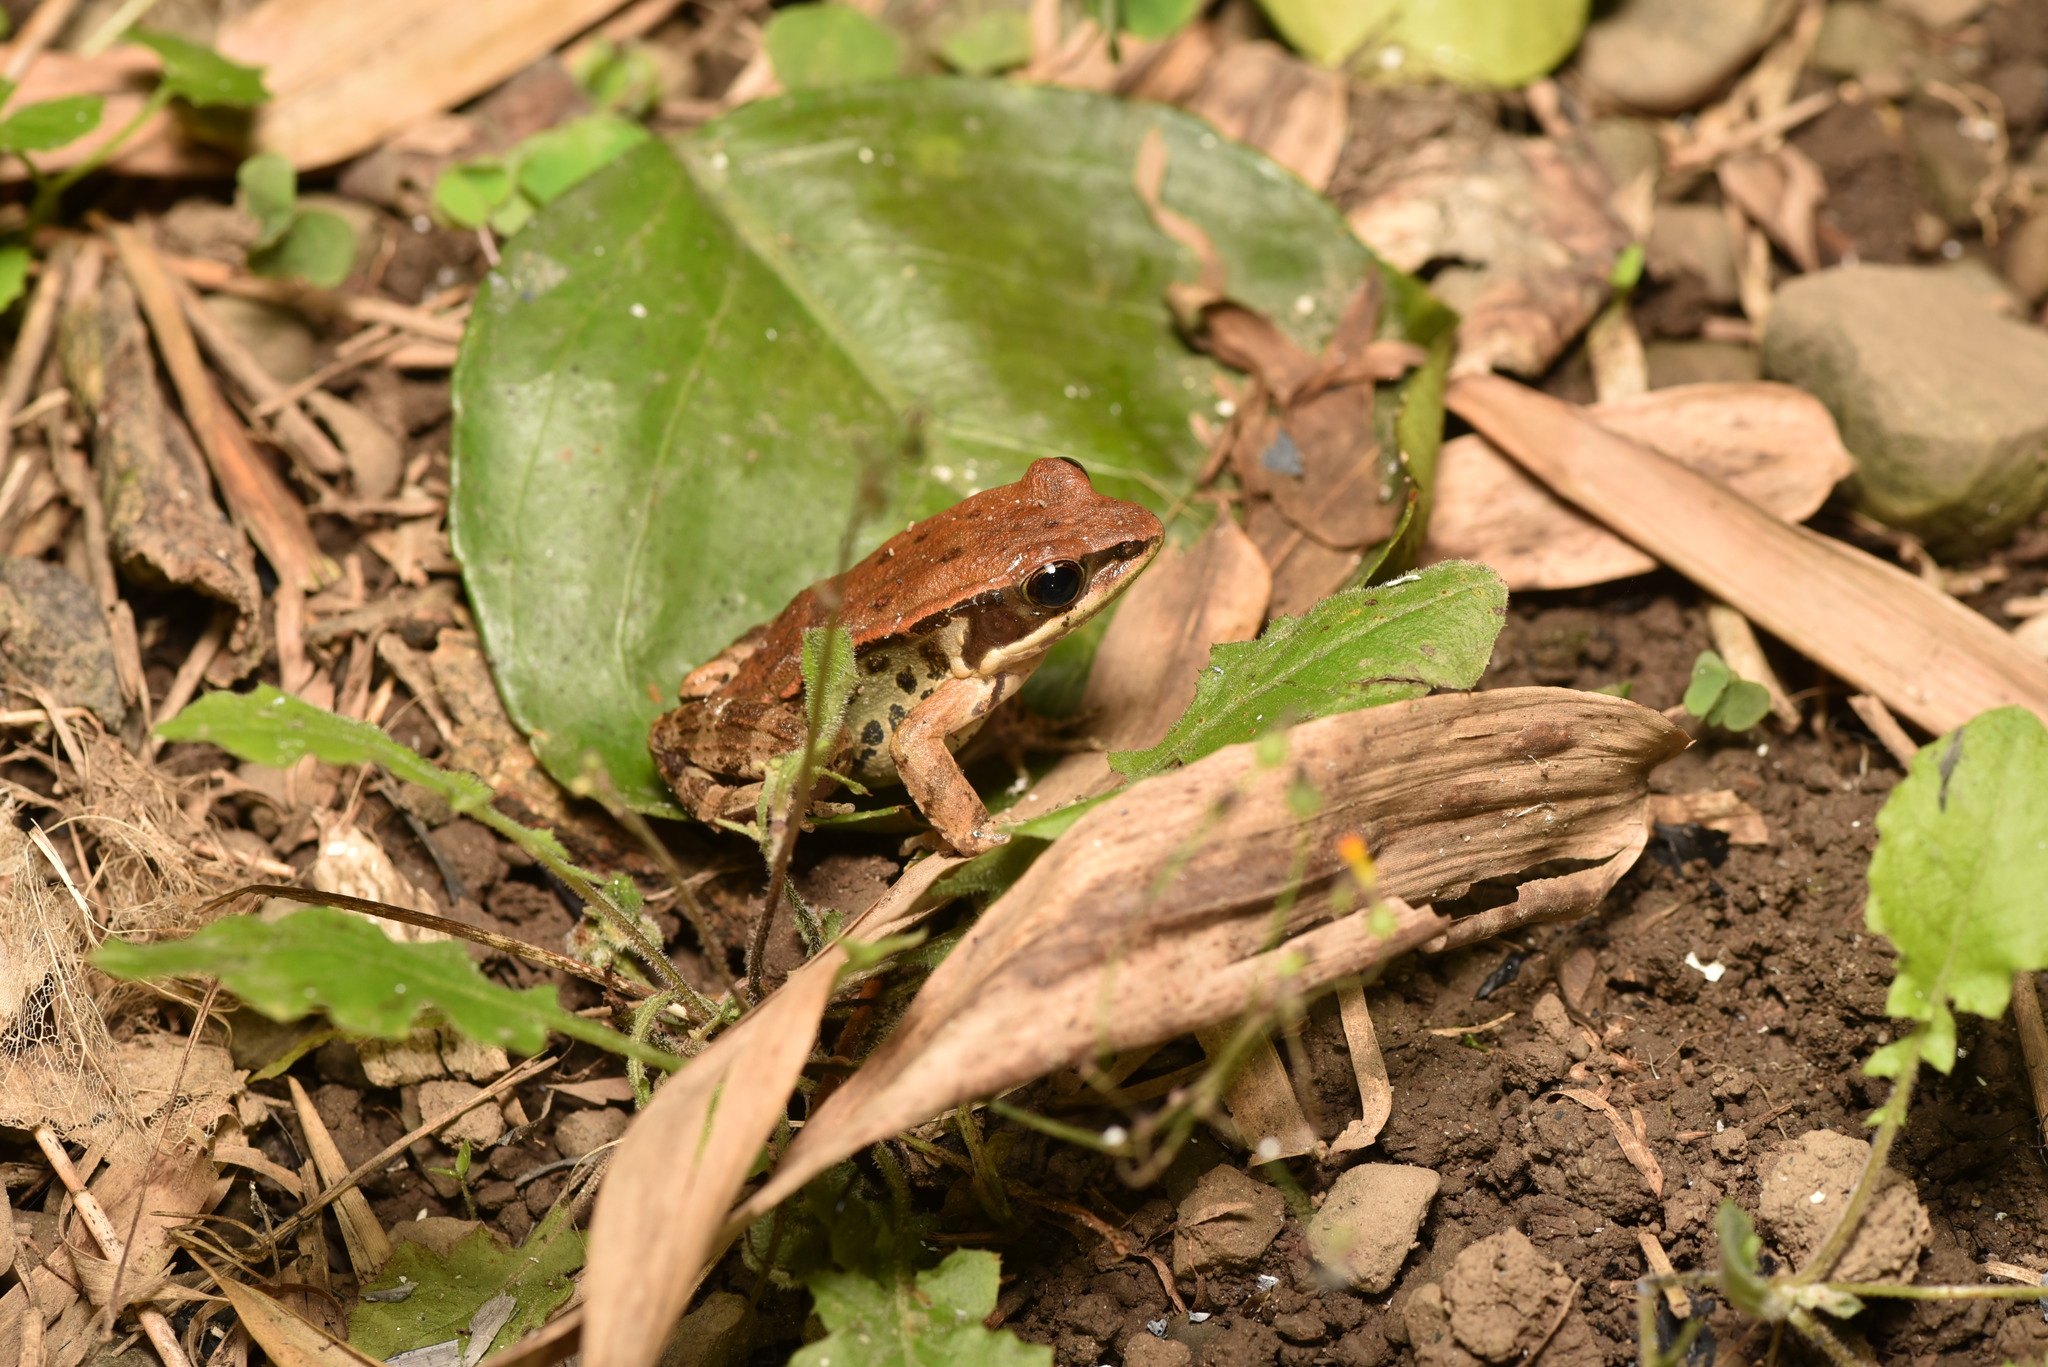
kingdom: Animalia
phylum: Chordata
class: Amphibia
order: Anura
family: Ranidae
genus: Hylarana
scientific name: Hylarana latouchii
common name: Broad-folded frog
